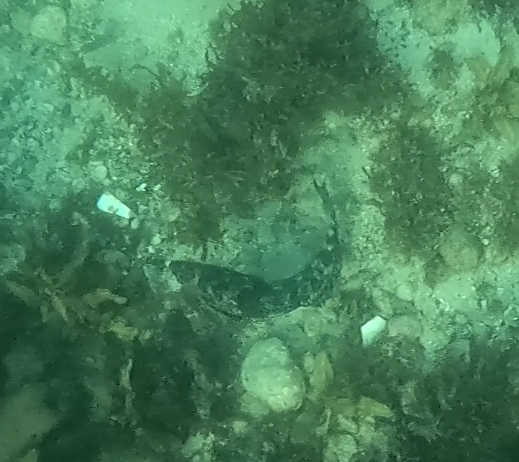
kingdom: Animalia
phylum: Chordata
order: Perciformes
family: Aplodactylidae
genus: Aplodactylus
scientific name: Aplodactylus lophodon
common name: Cockatoo fish
